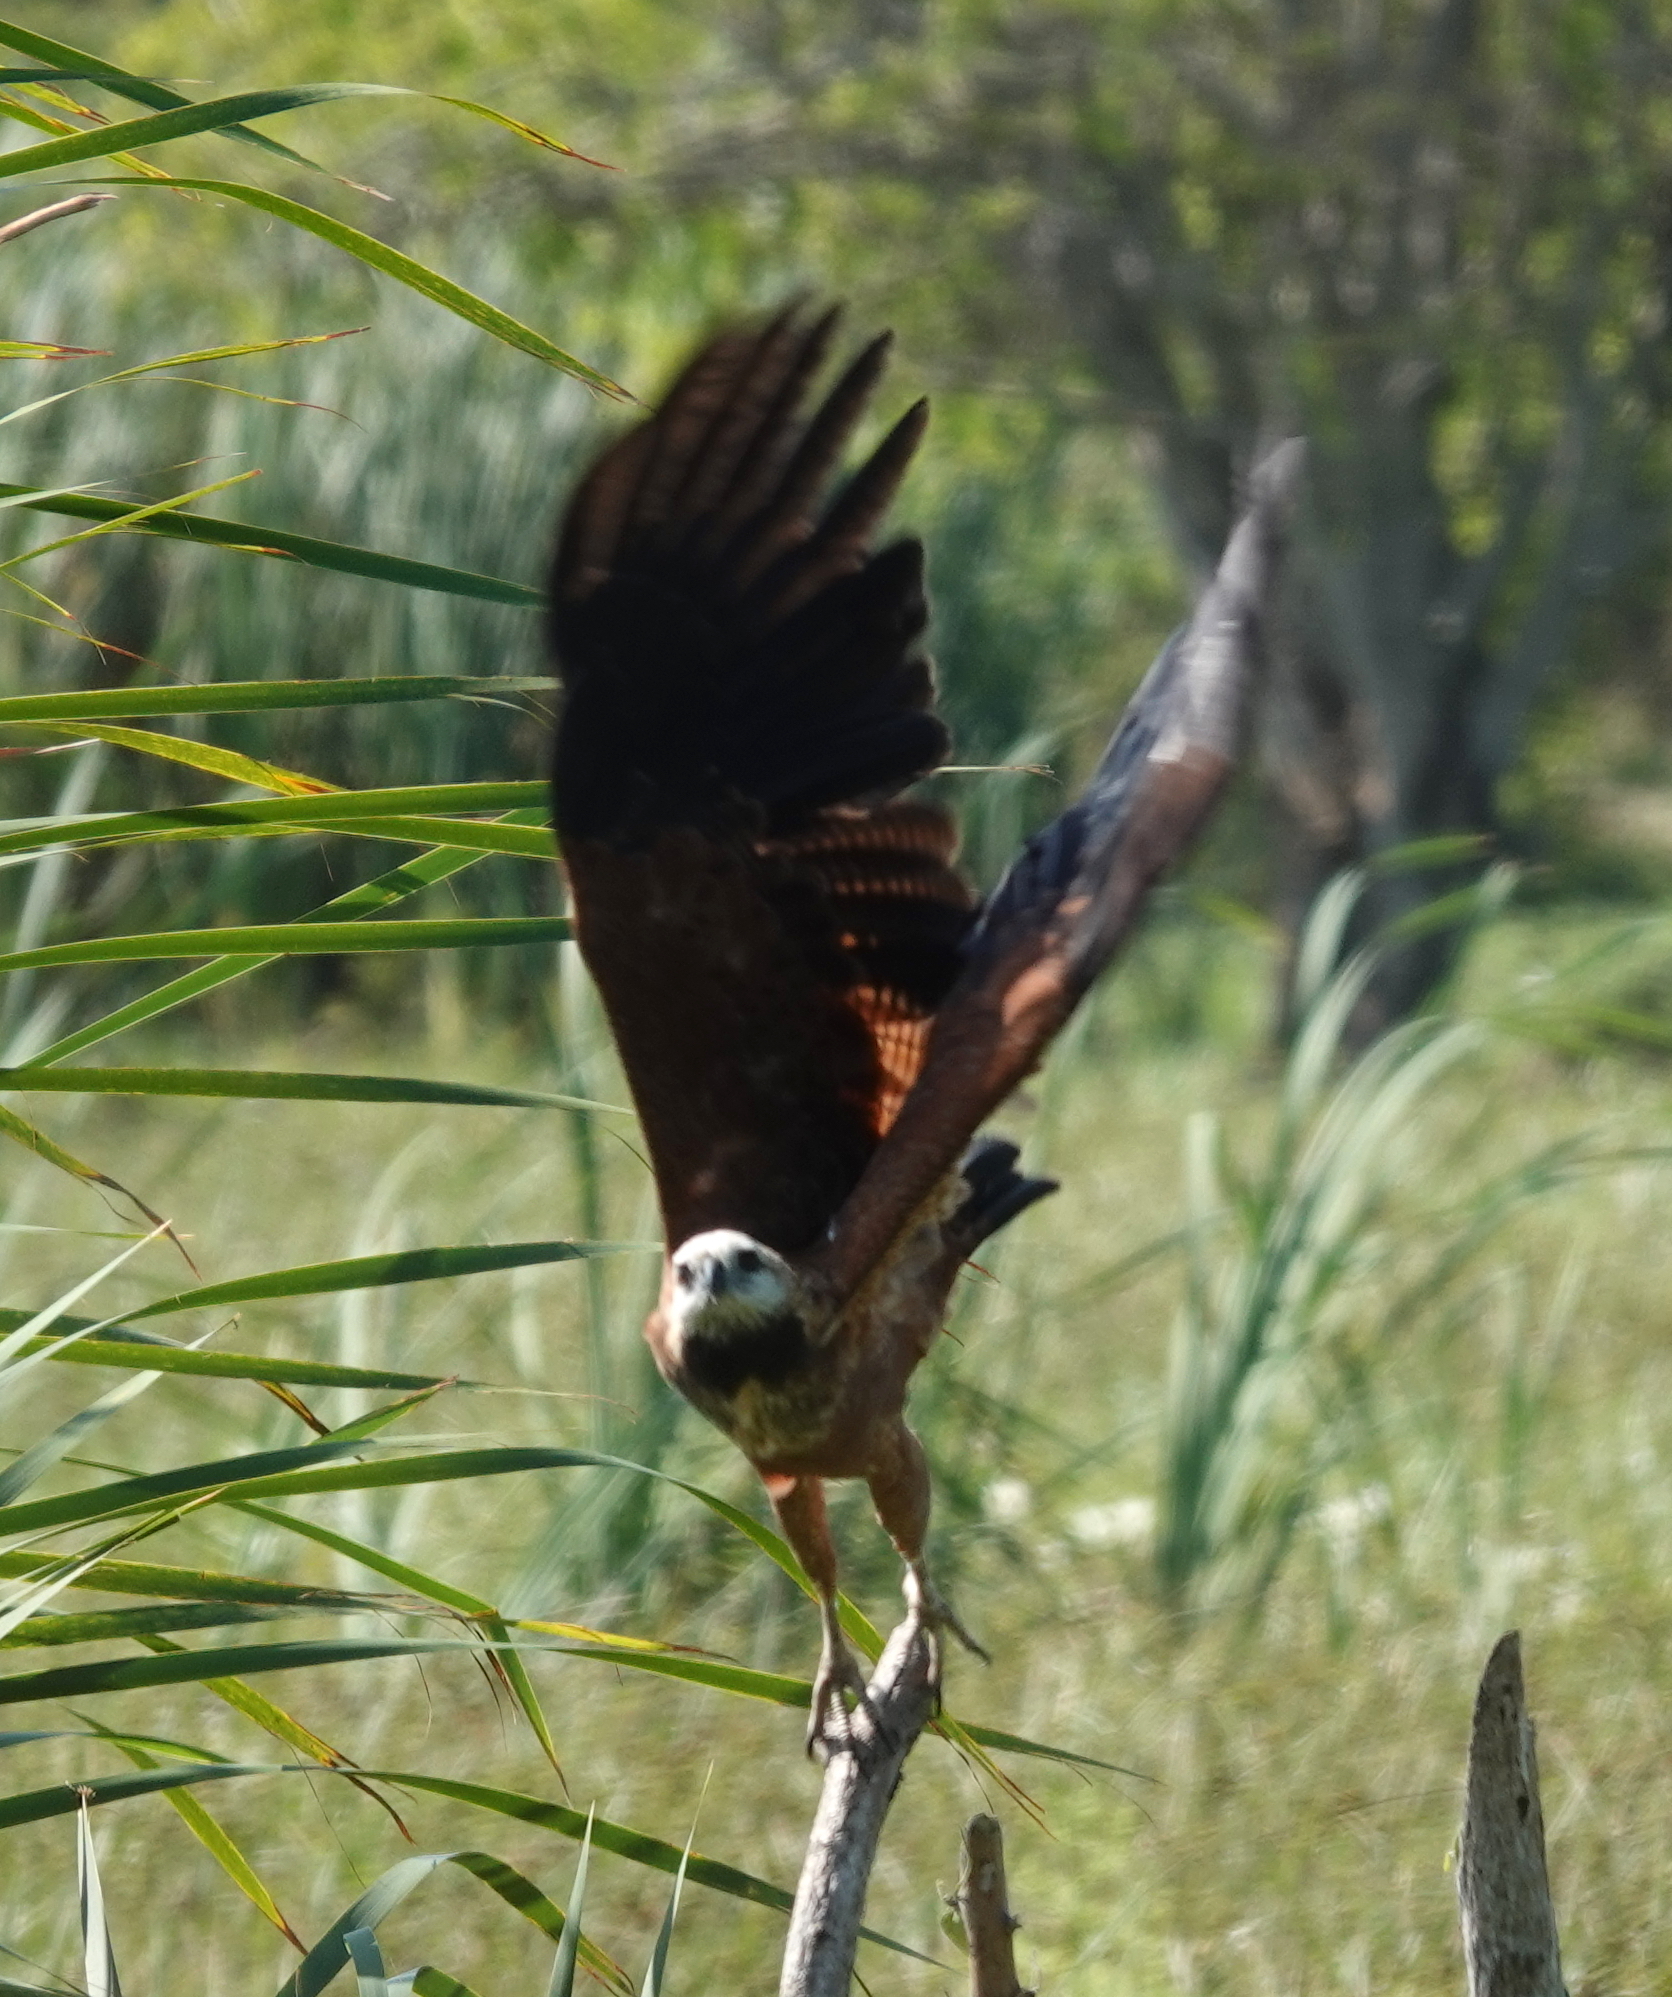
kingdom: Animalia
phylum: Chordata
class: Aves
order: Accipitriformes
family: Accipitridae
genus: Busarellus
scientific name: Busarellus nigricollis
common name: Black-collared hawk
